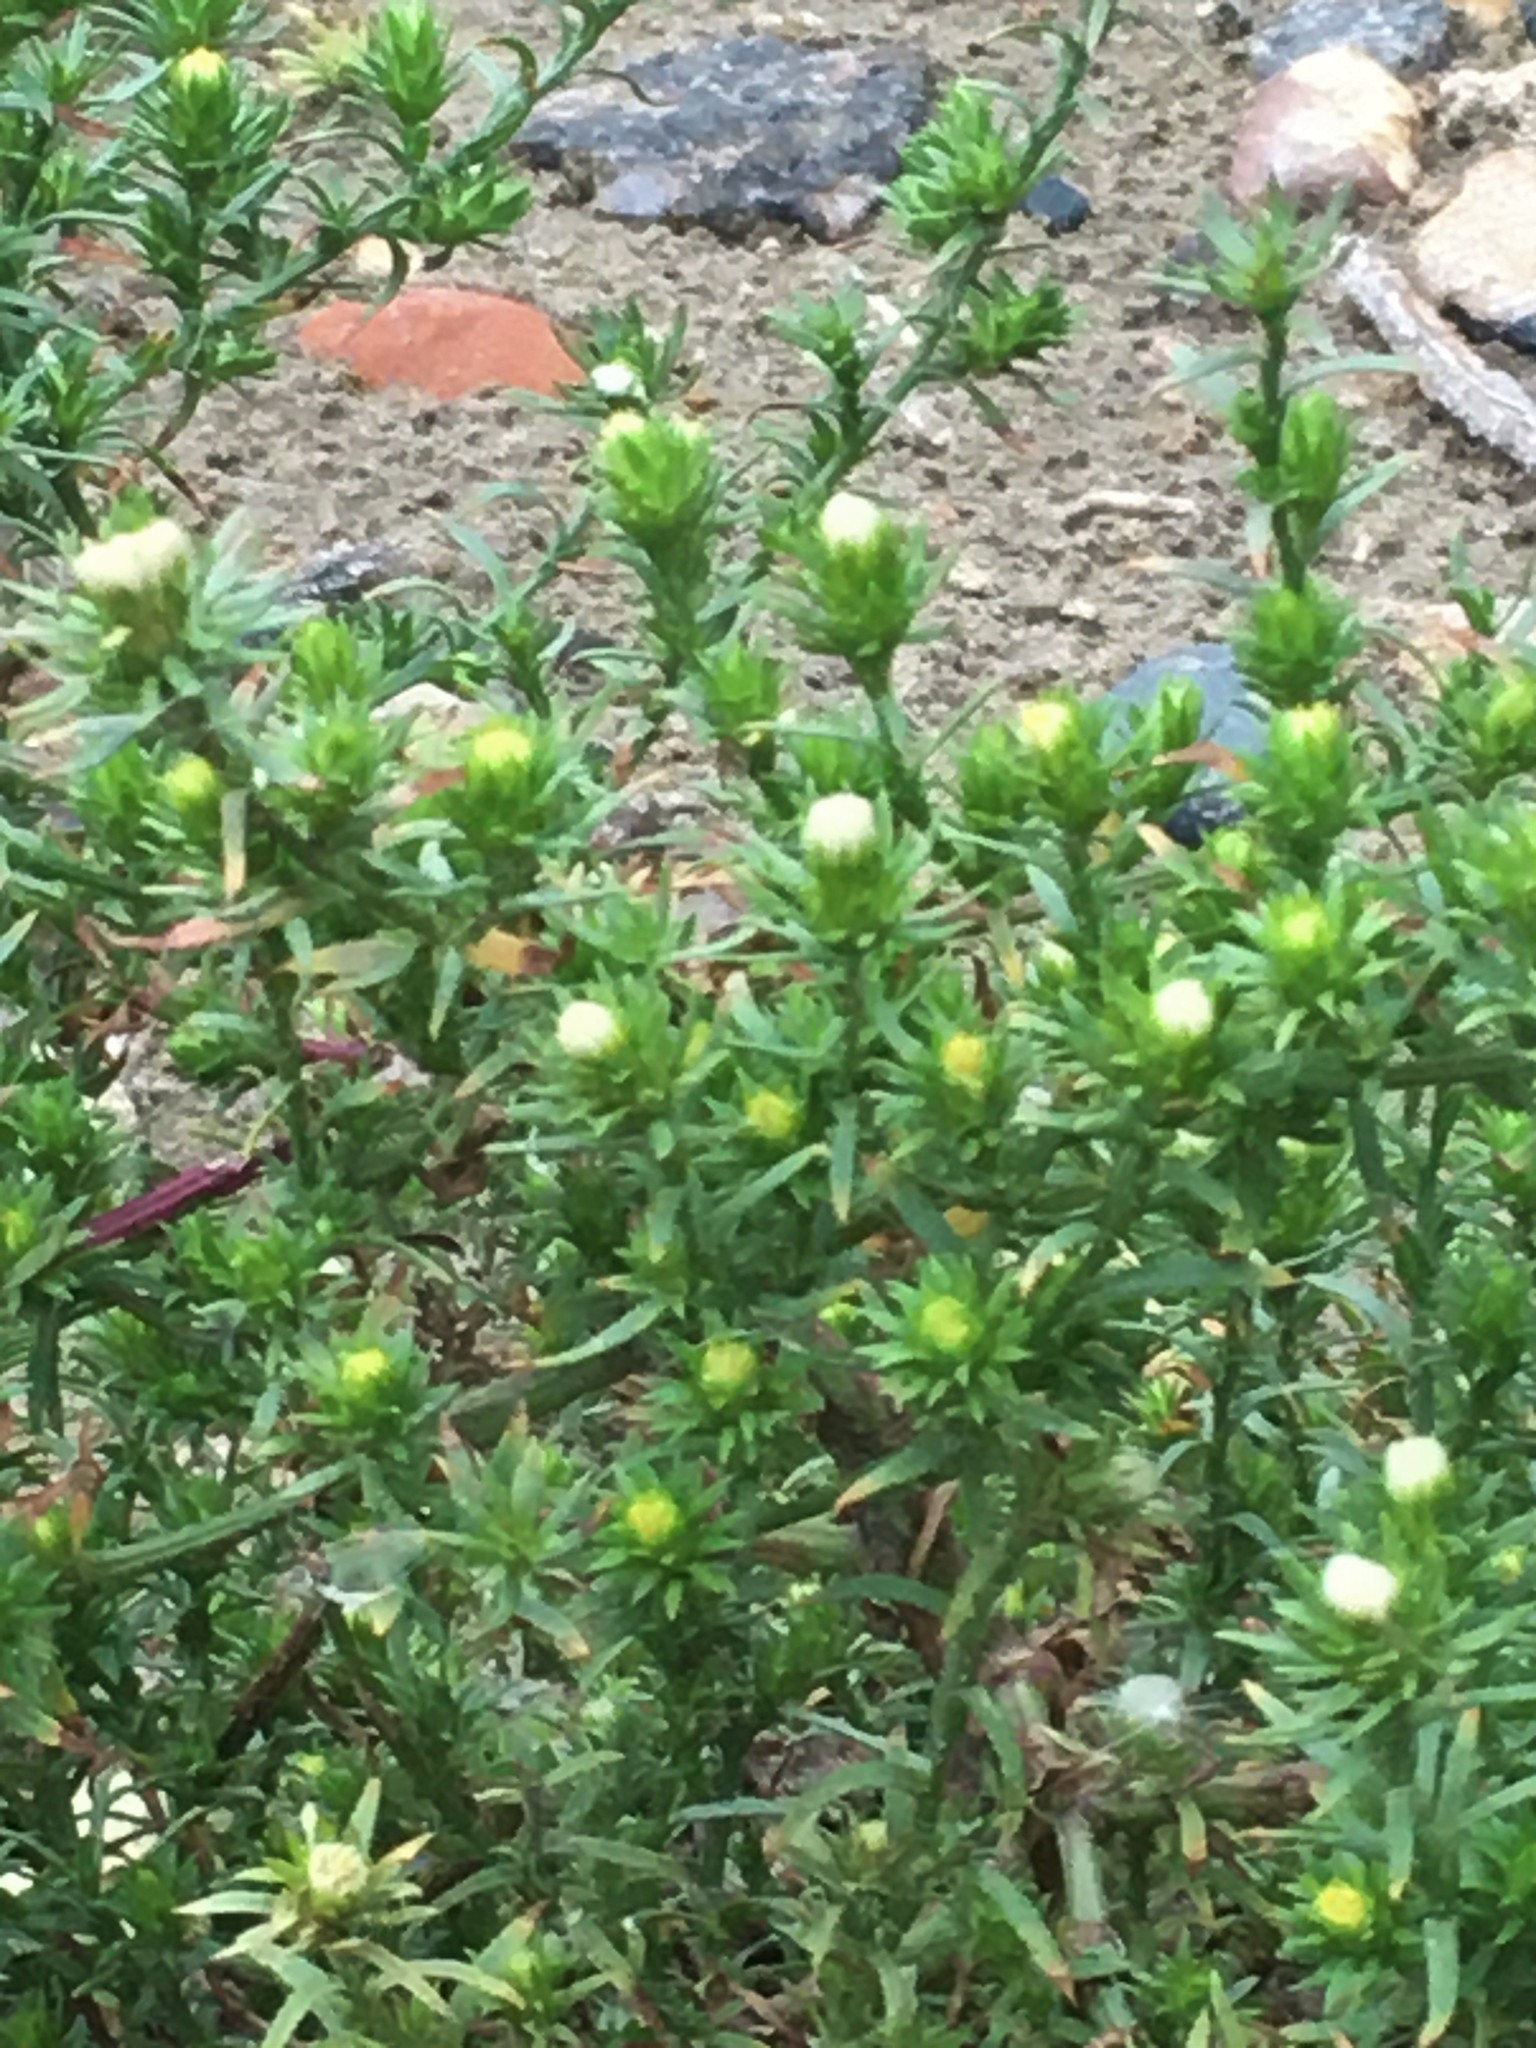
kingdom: Plantae
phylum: Tracheophyta
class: Magnoliopsida
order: Asterales
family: Asteraceae
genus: Symphyotrichum
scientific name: Symphyotrichum ciliatum
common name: Rayless annual aster
